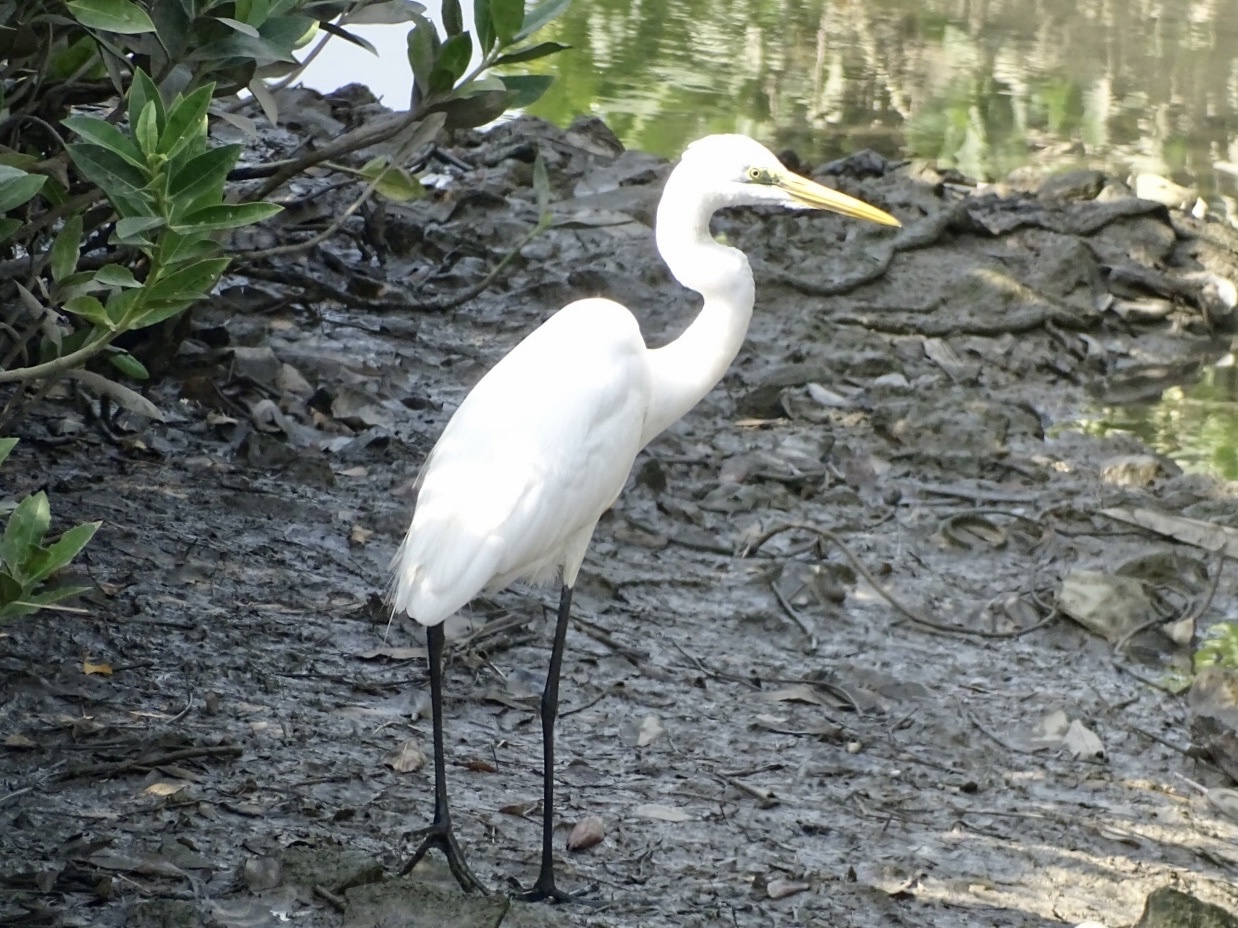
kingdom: Animalia
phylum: Chordata
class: Aves
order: Pelecaniformes
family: Ardeidae
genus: Ardea
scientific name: Ardea alba
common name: Great egret
